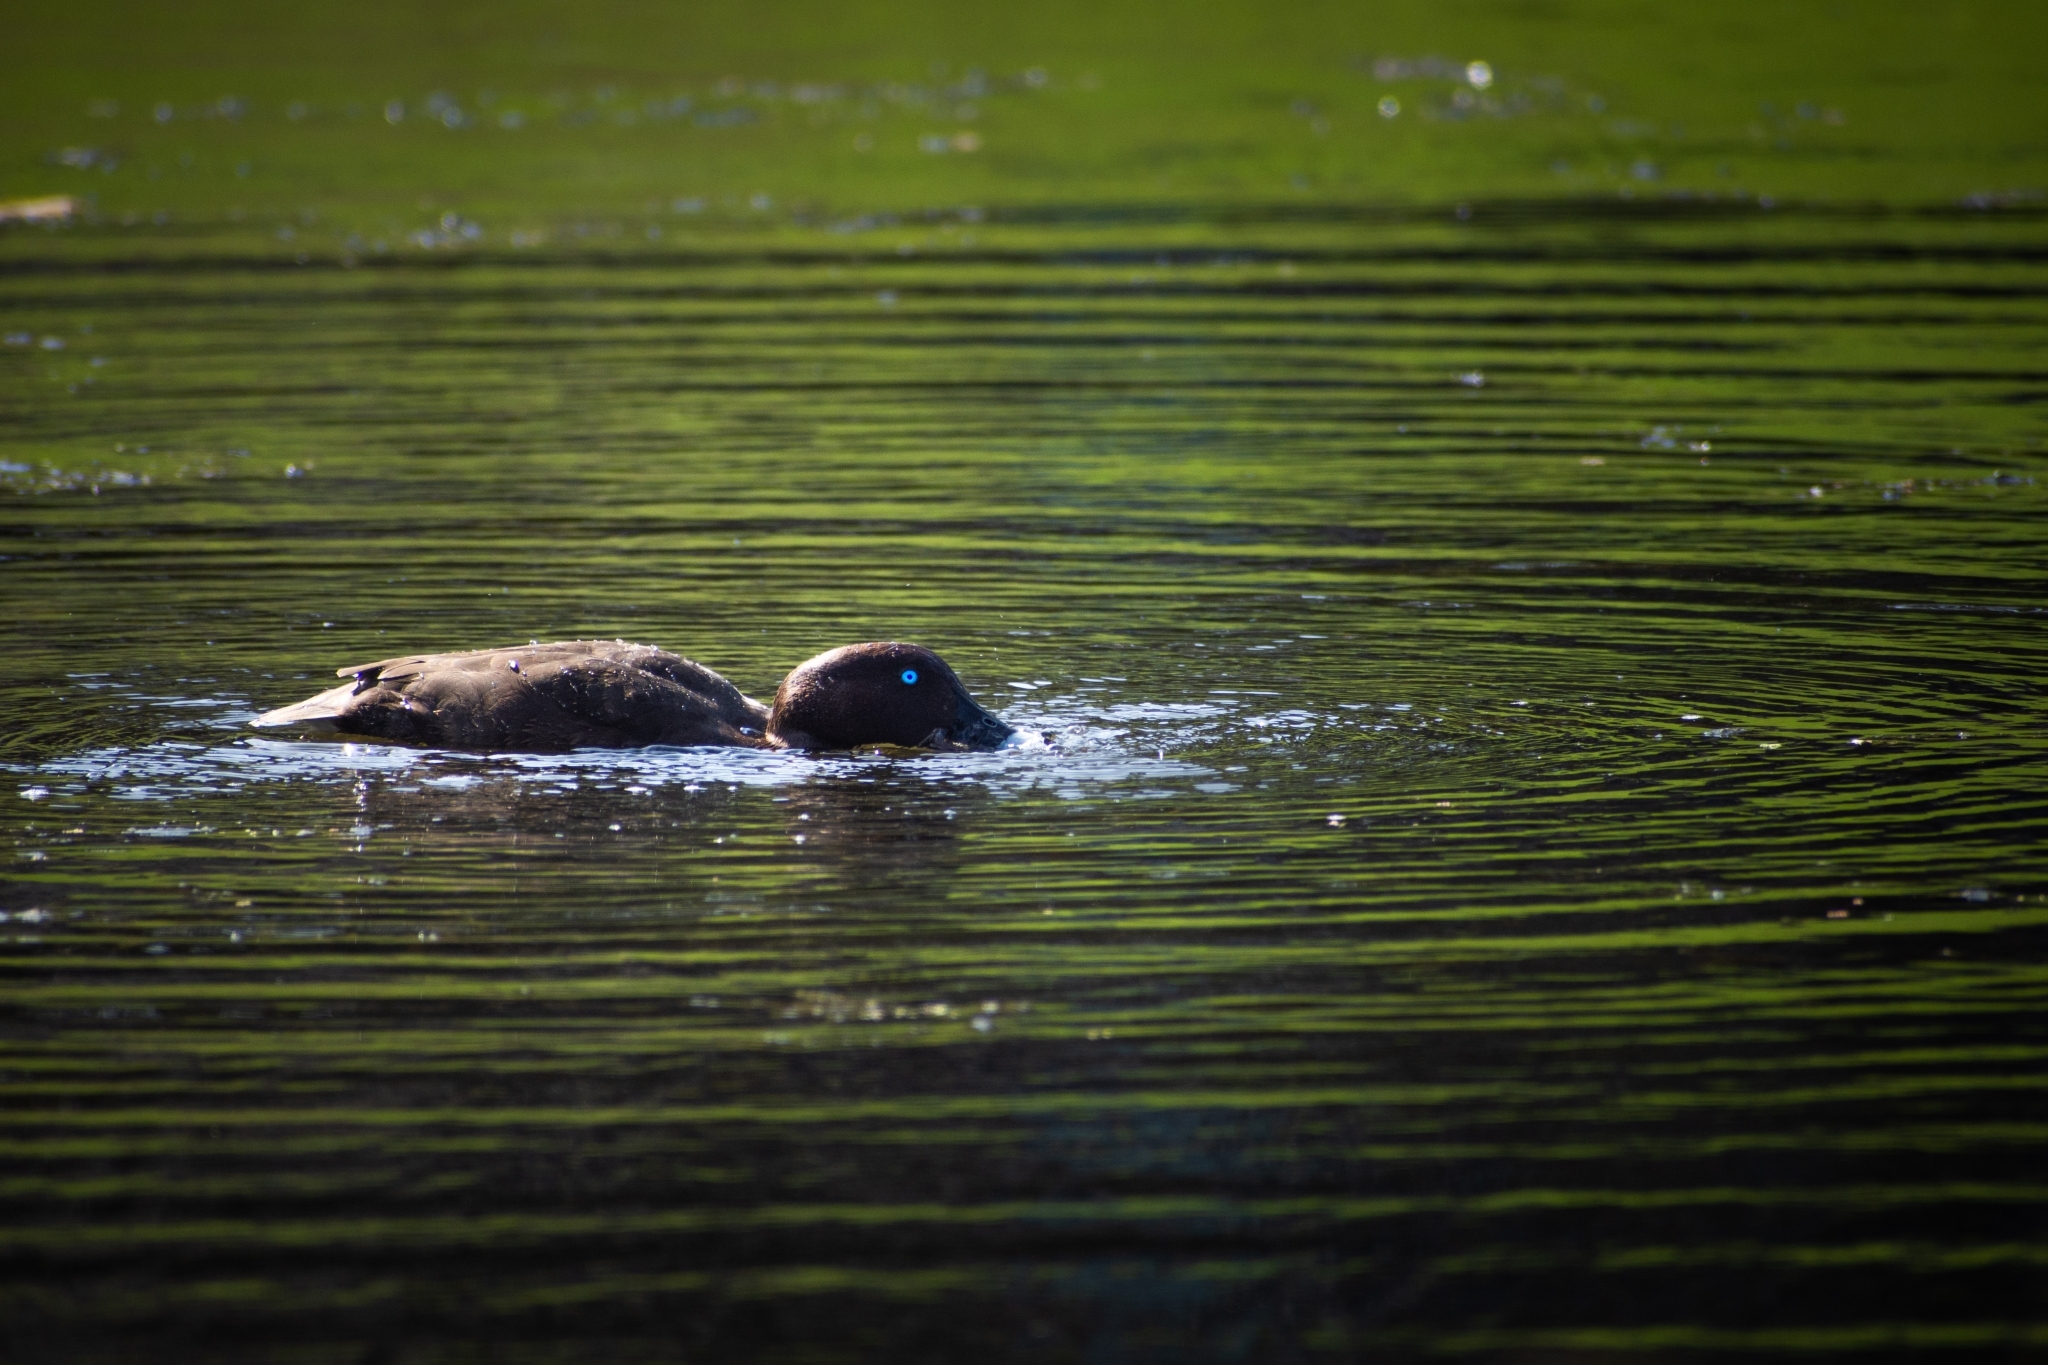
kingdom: Animalia
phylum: Chordata
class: Aves
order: Anseriformes
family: Anatidae
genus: Aythya
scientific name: Aythya australis
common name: Hardhead
